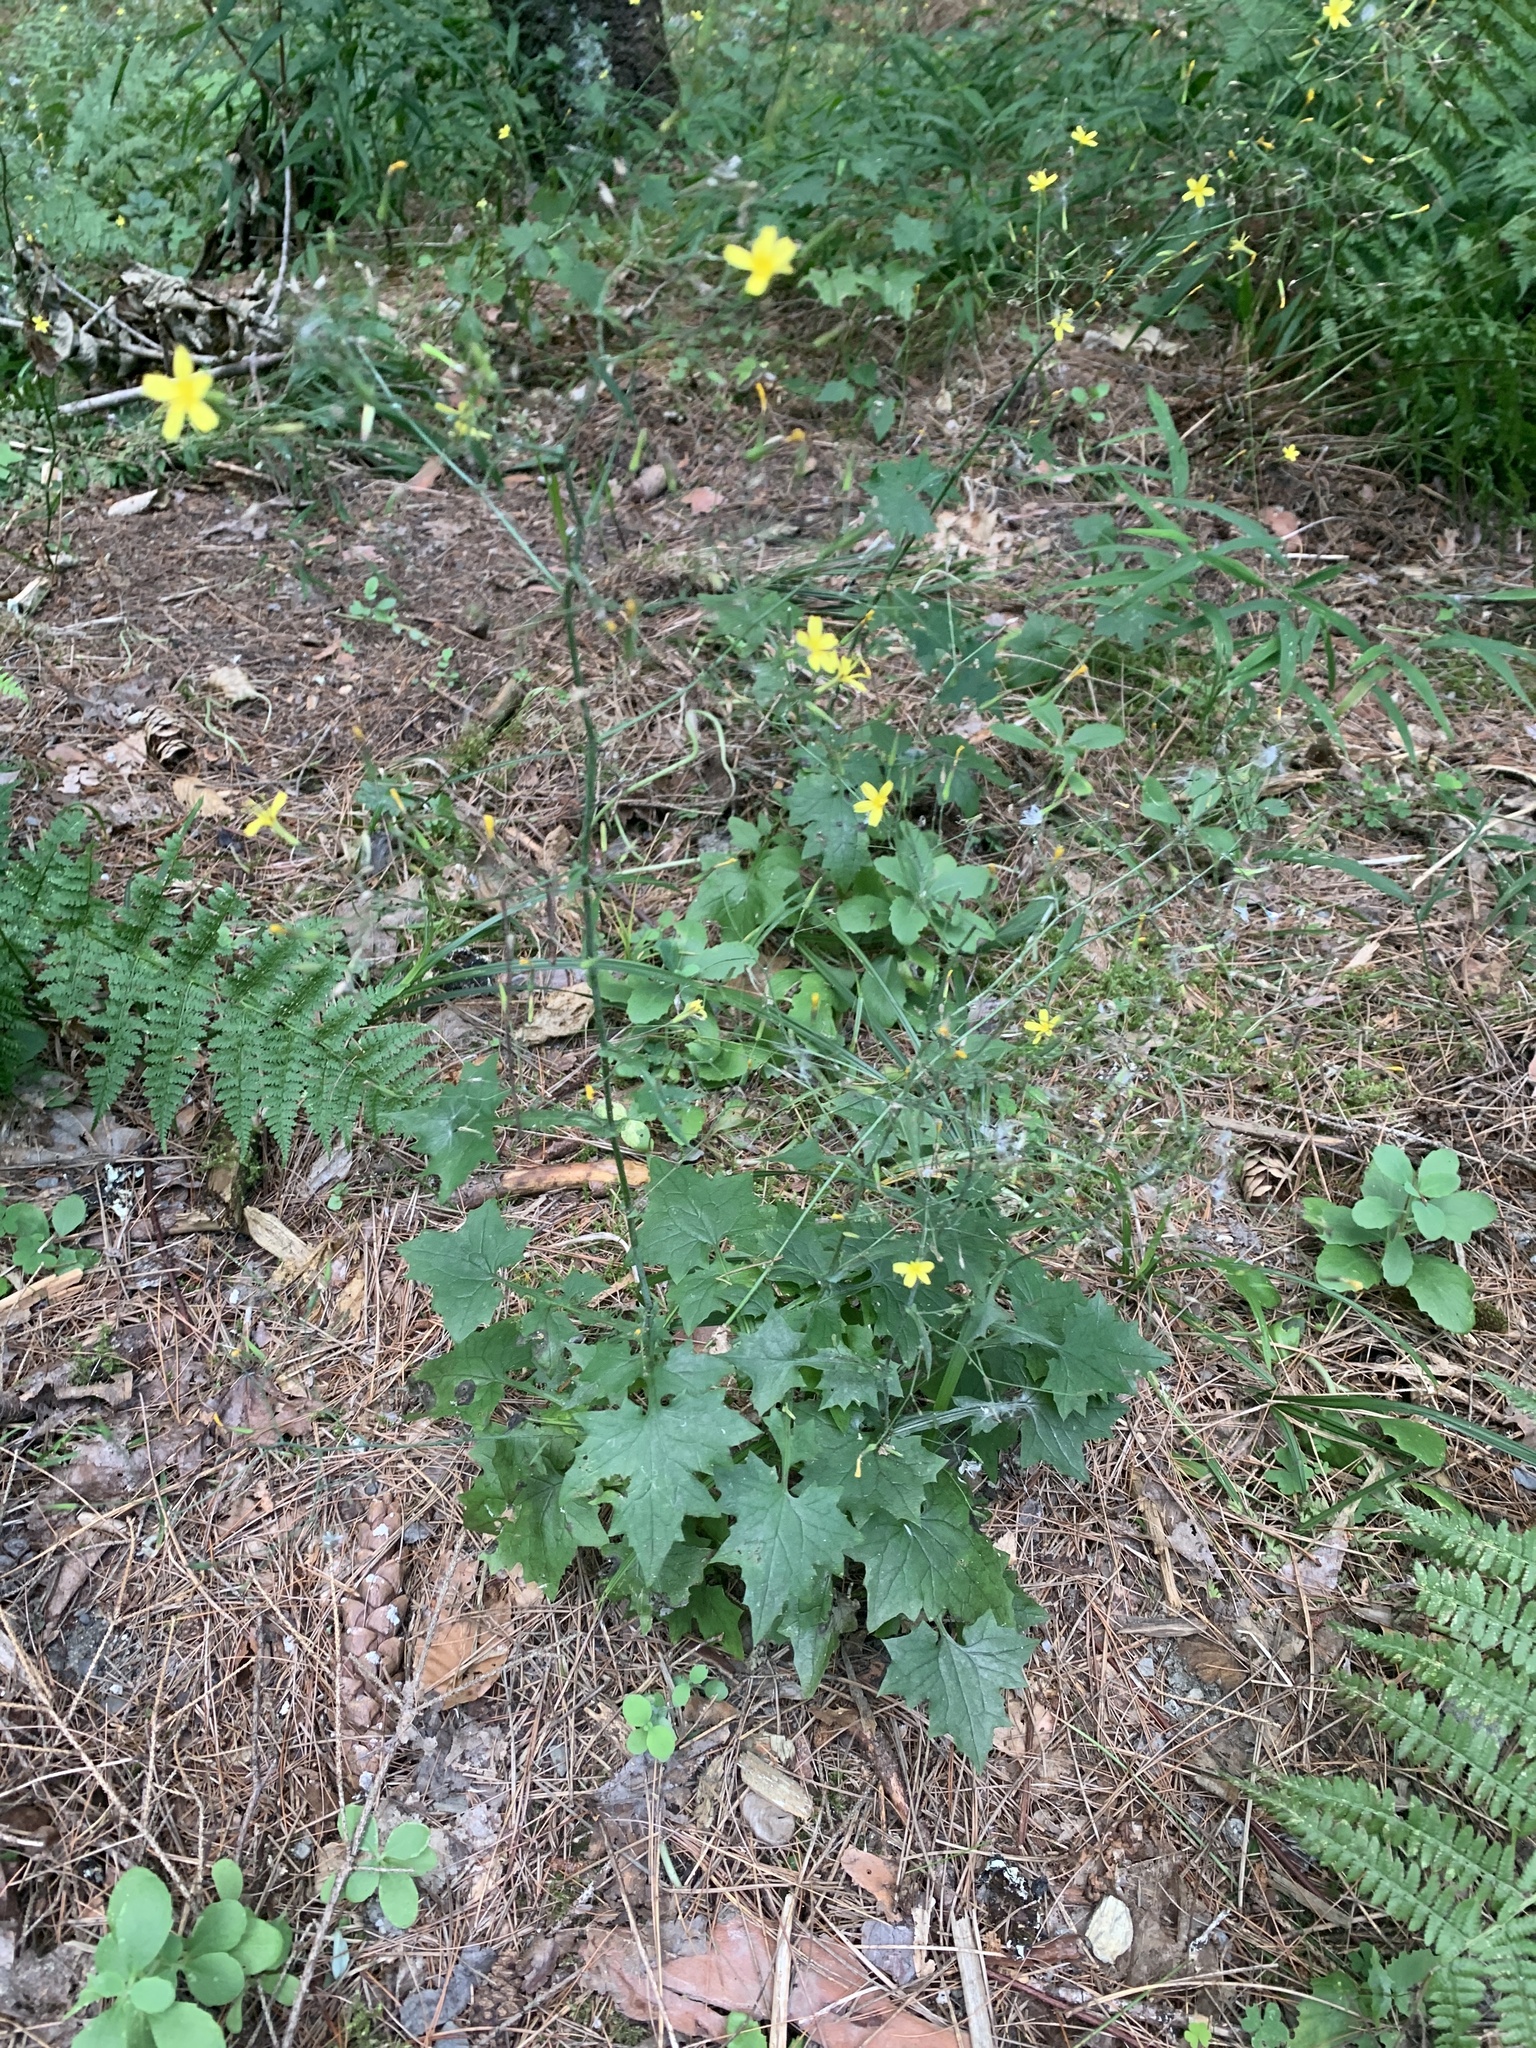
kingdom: Plantae
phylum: Tracheophyta
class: Magnoliopsida
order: Asterales
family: Asteraceae
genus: Mycelis
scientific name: Mycelis muralis
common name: Wall lettuce
